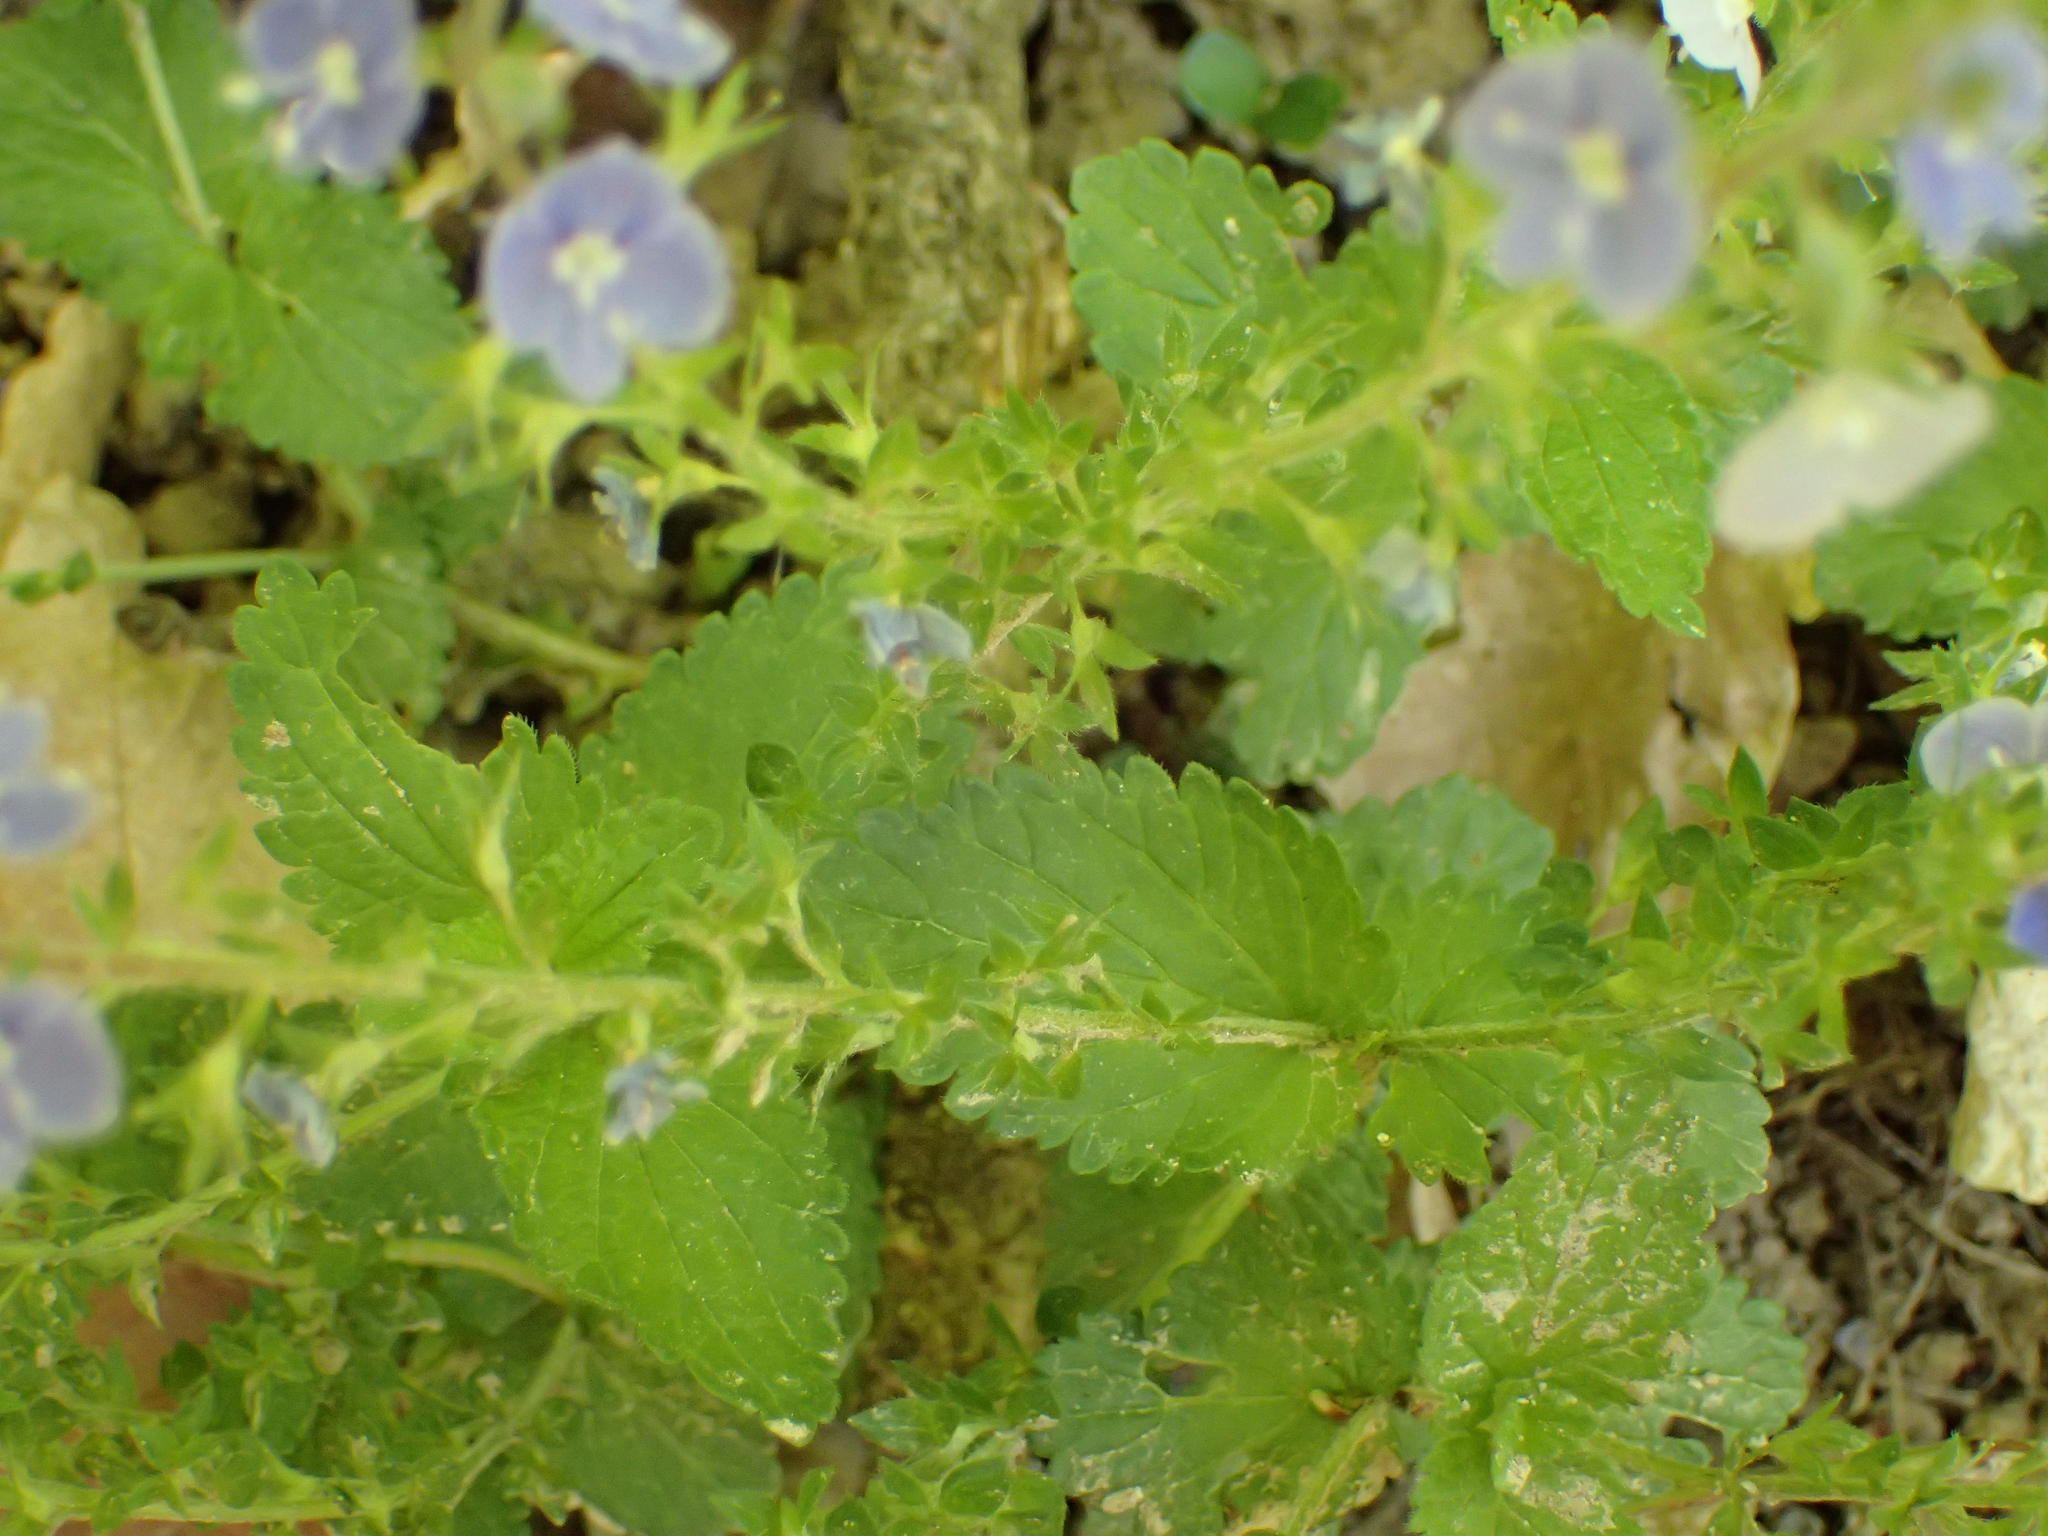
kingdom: Plantae
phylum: Tracheophyta
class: Magnoliopsida
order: Lamiales
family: Plantaginaceae
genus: Veronica
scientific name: Veronica chamaedrys
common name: Germander speedwell
